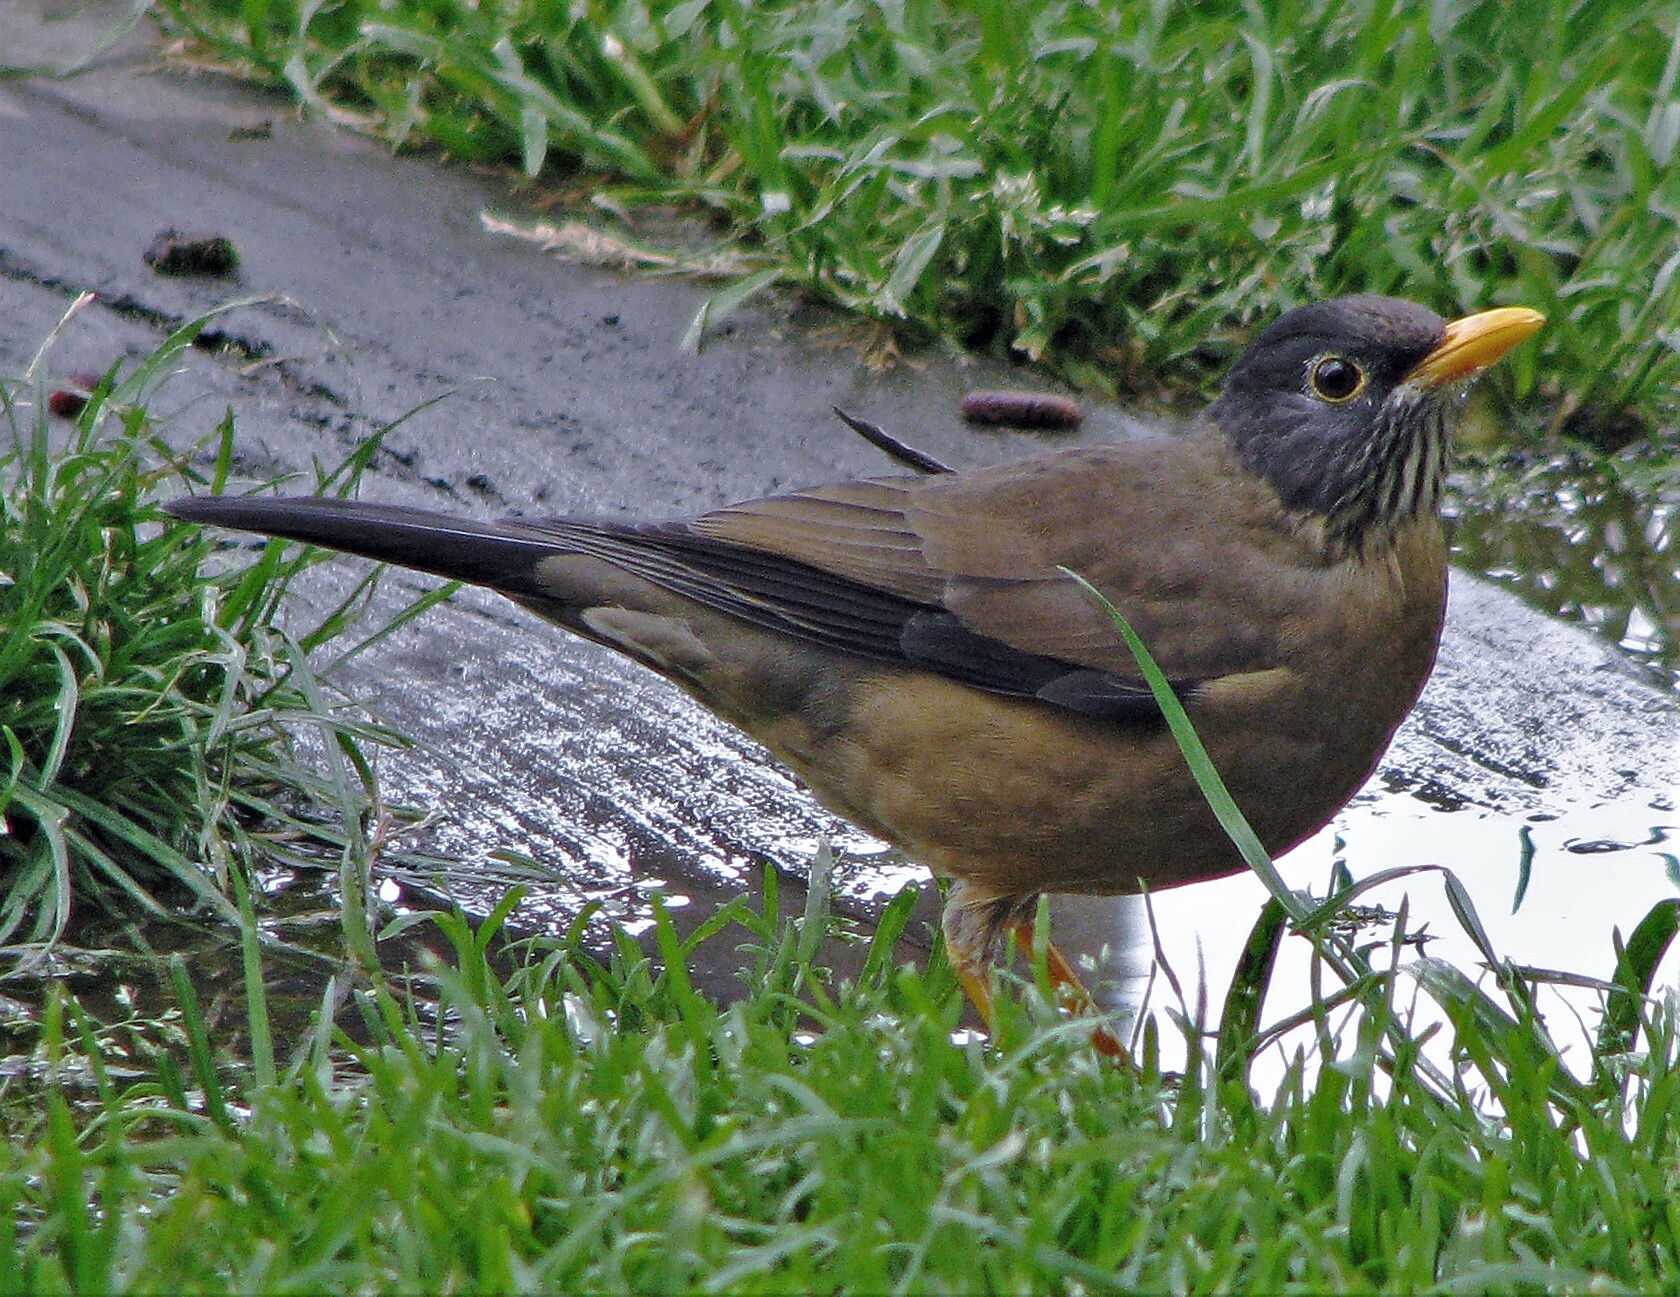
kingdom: Animalia
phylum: Chordata
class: Aves
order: Passeriformes
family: Turdidae
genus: Turdus
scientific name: Turdus falcklandii
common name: Austral thrush
